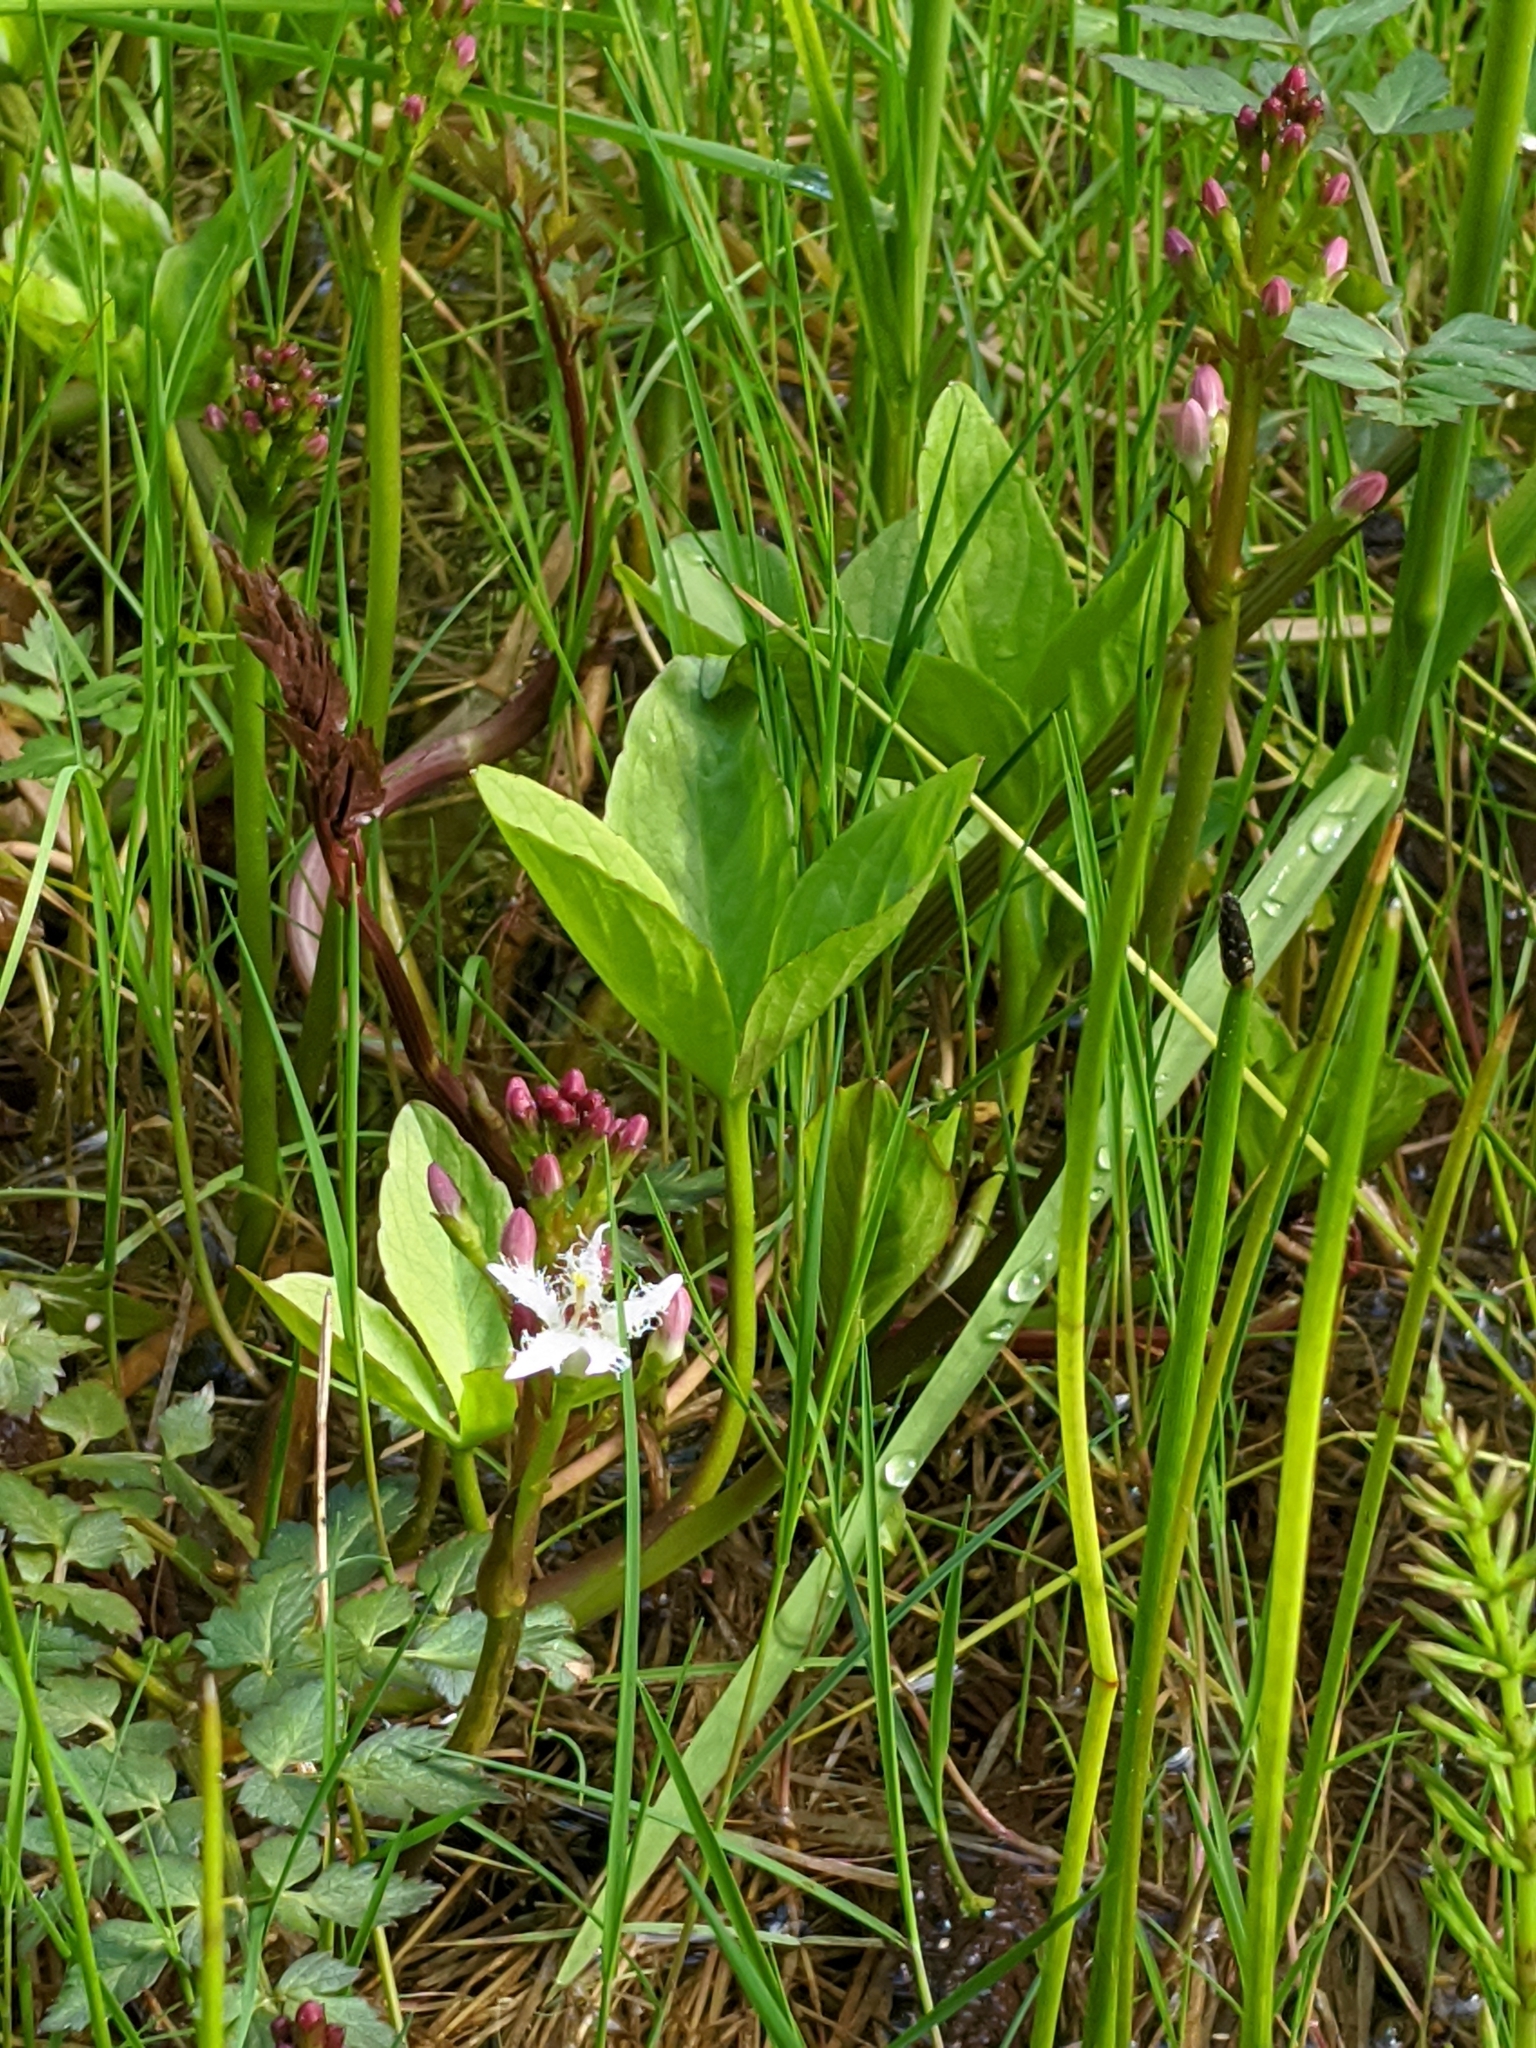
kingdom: Plantae
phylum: Tracheophyta
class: Magnoliopsida
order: Asterales
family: Menyanthaceae
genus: Menyanthes
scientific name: Menyanthes trifoliata
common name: Bogbean
